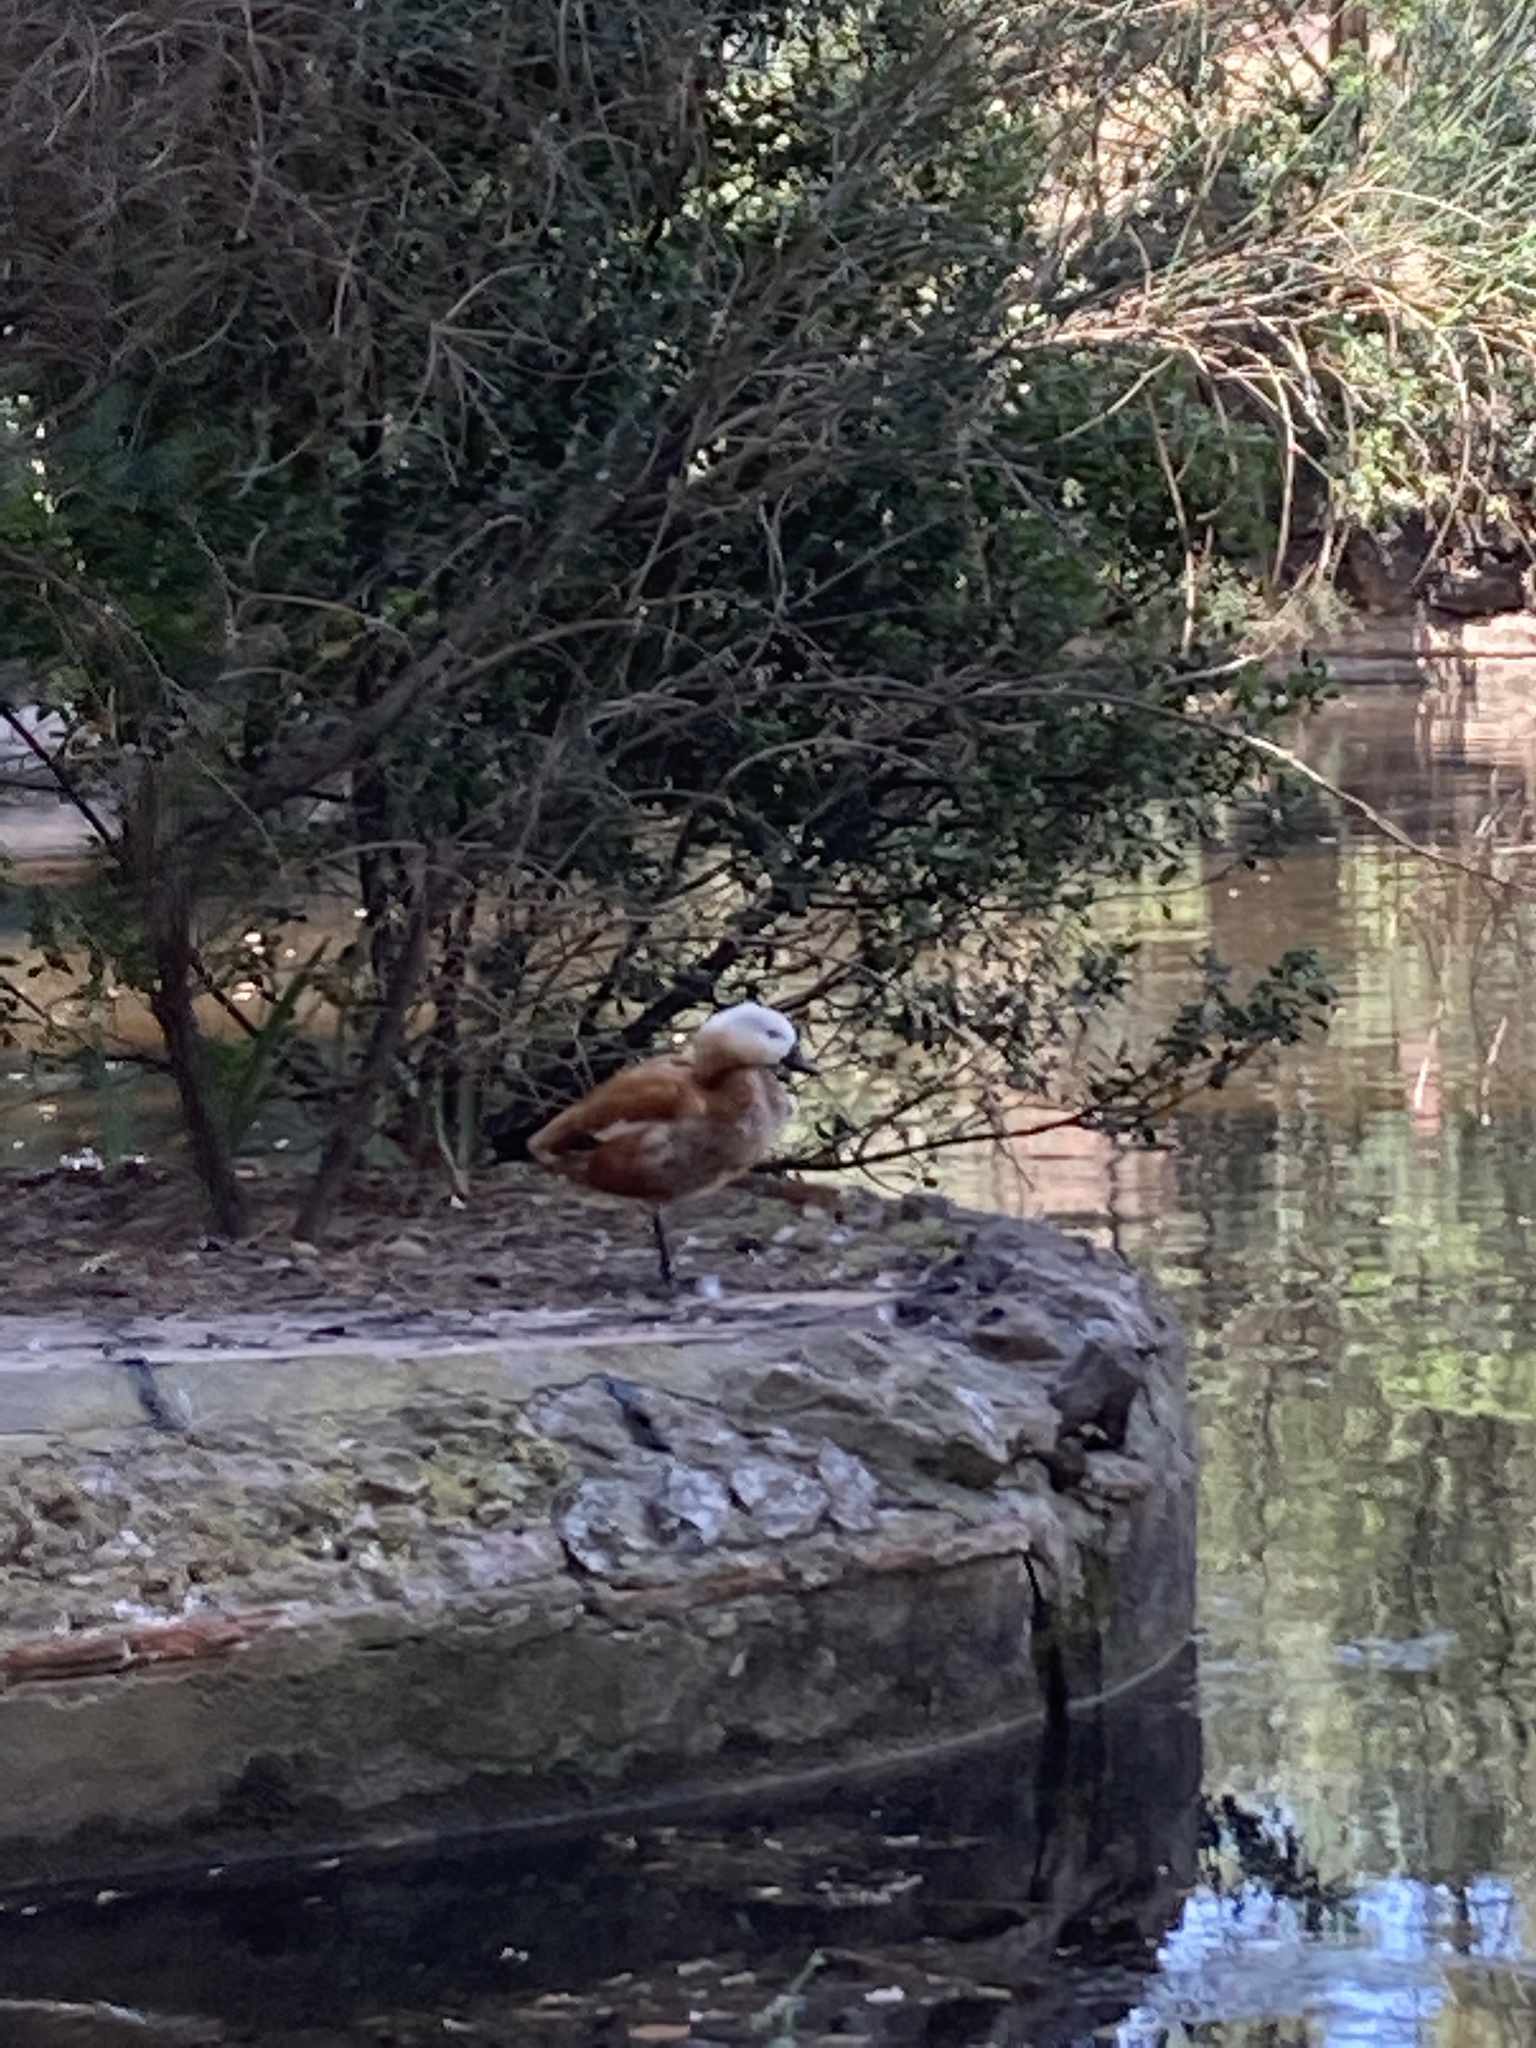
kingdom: Animalia
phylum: Chordata
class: Aves
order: Anseriformes
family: Anatidae
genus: Tadorna
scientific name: Tadorna ferruginea
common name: Ruddy shelduck
